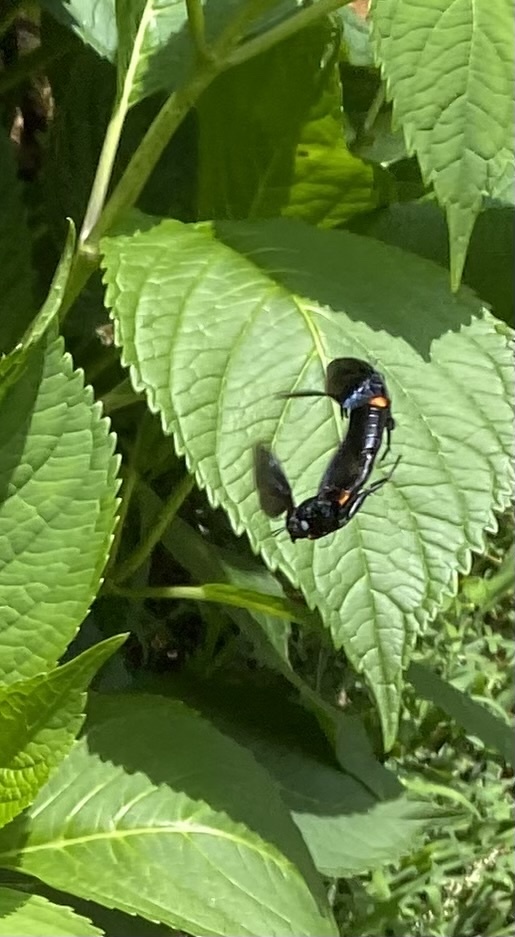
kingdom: Animalia
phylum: Arthropoda
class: Insecta
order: Diptera
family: Mydidae
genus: Mydas
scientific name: Mydas clavatus
